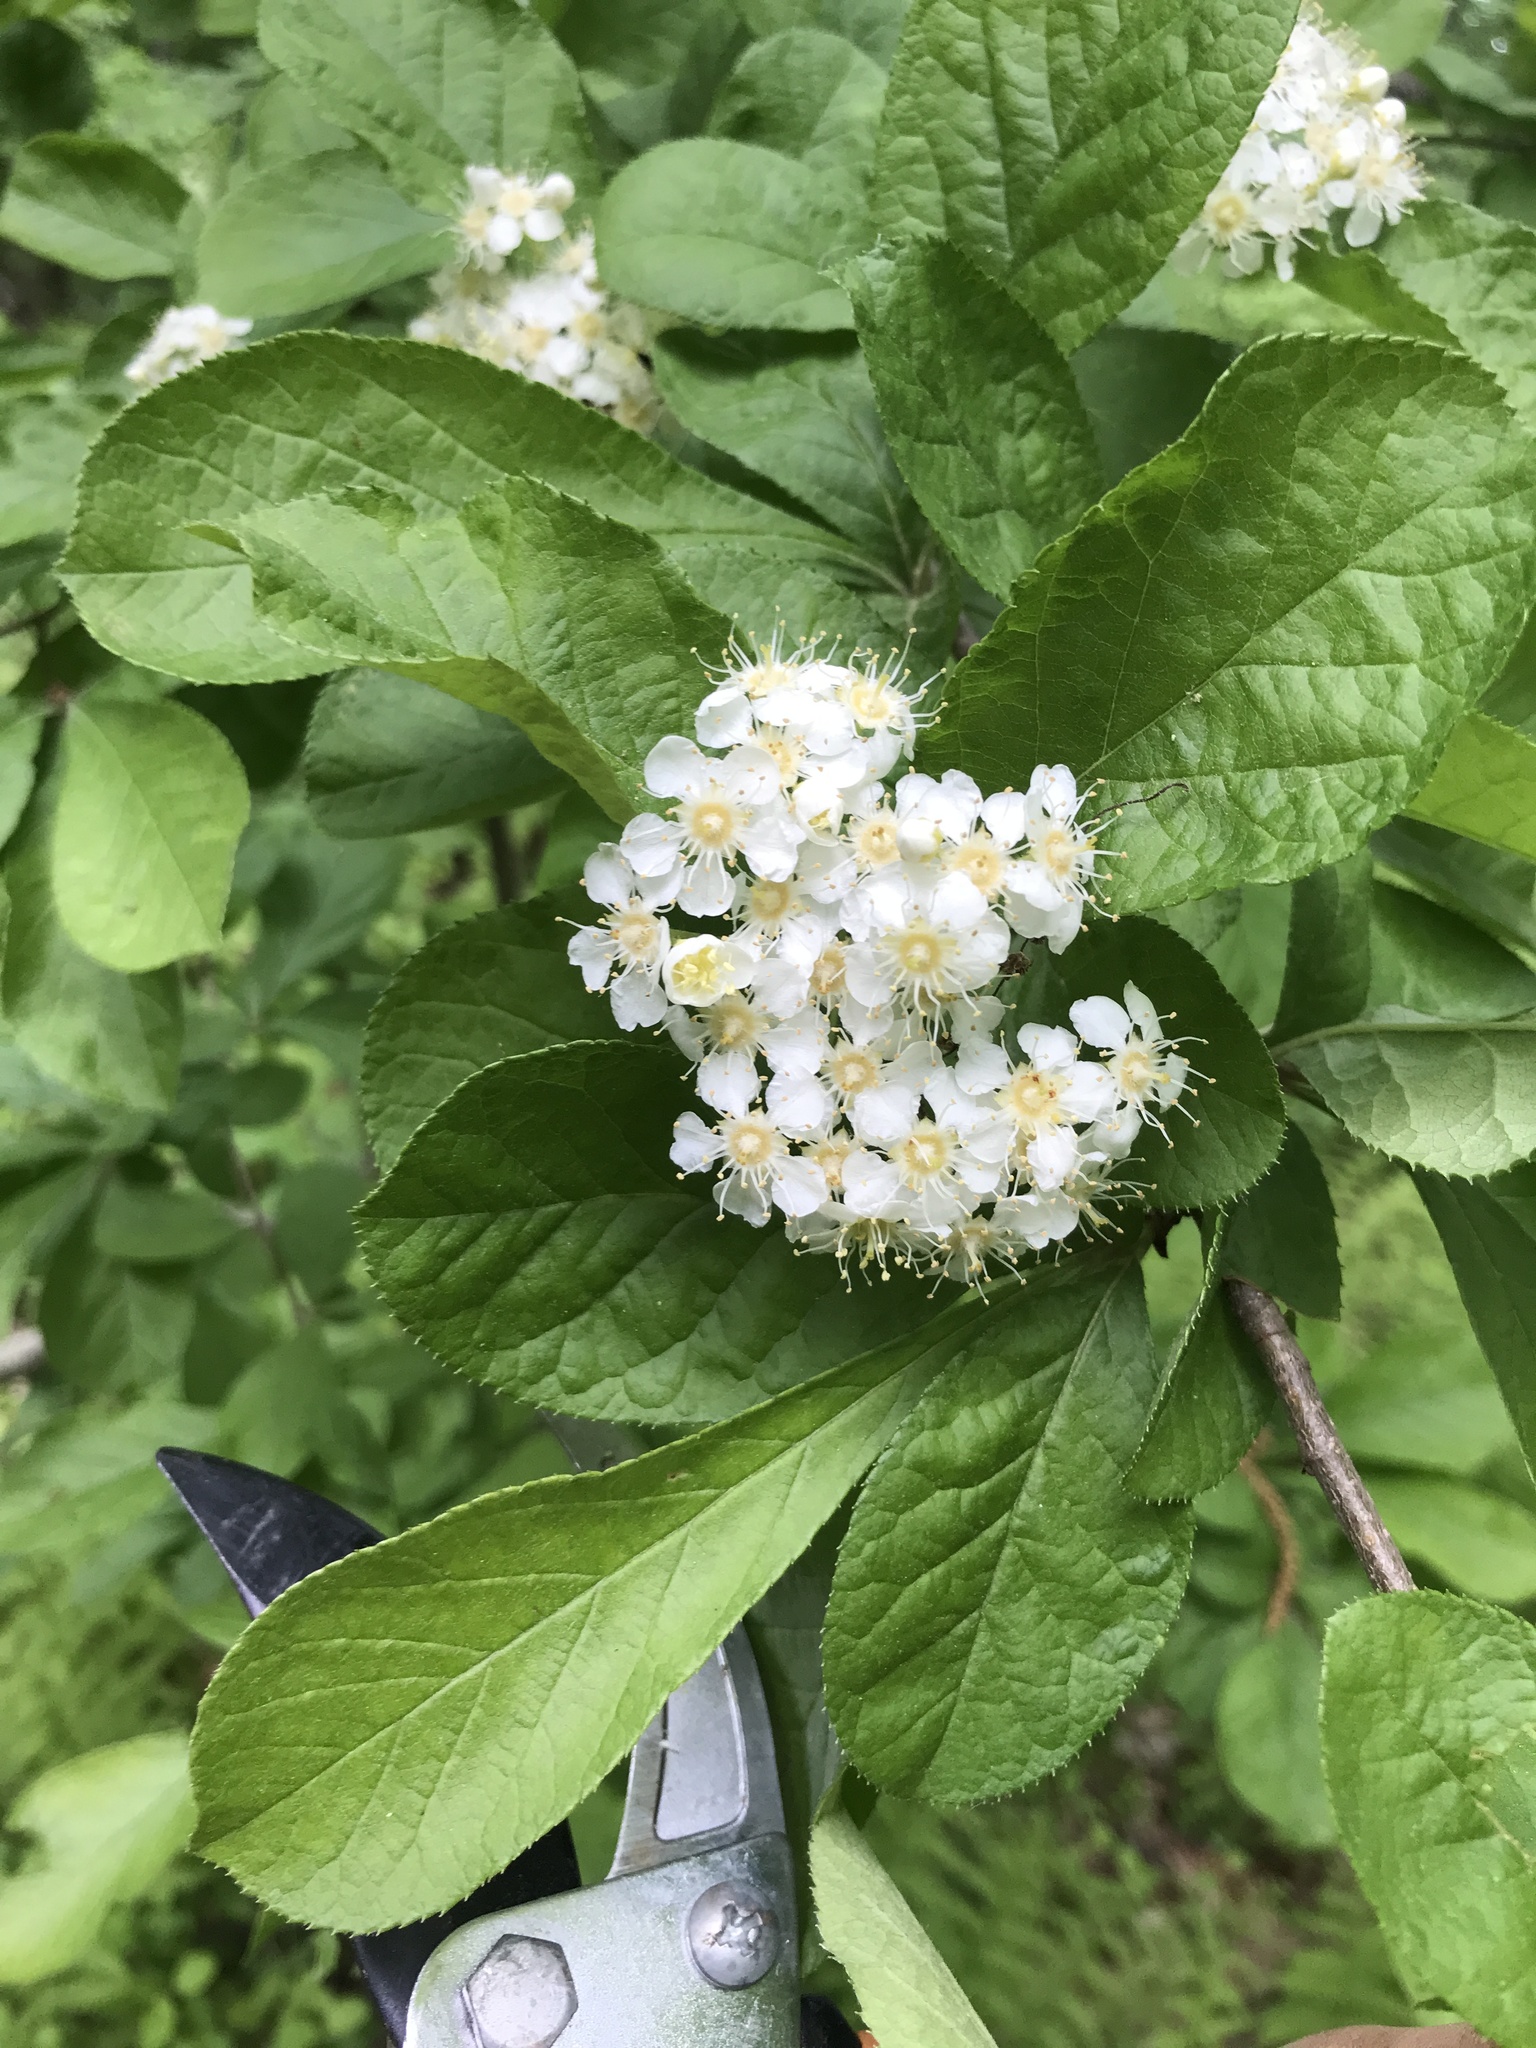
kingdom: Plantae
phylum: Tracheophyta
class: Magnoliopsida
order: Rosales
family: Rosaceae
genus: Pourthiaea
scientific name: Pourthiaea villosa
